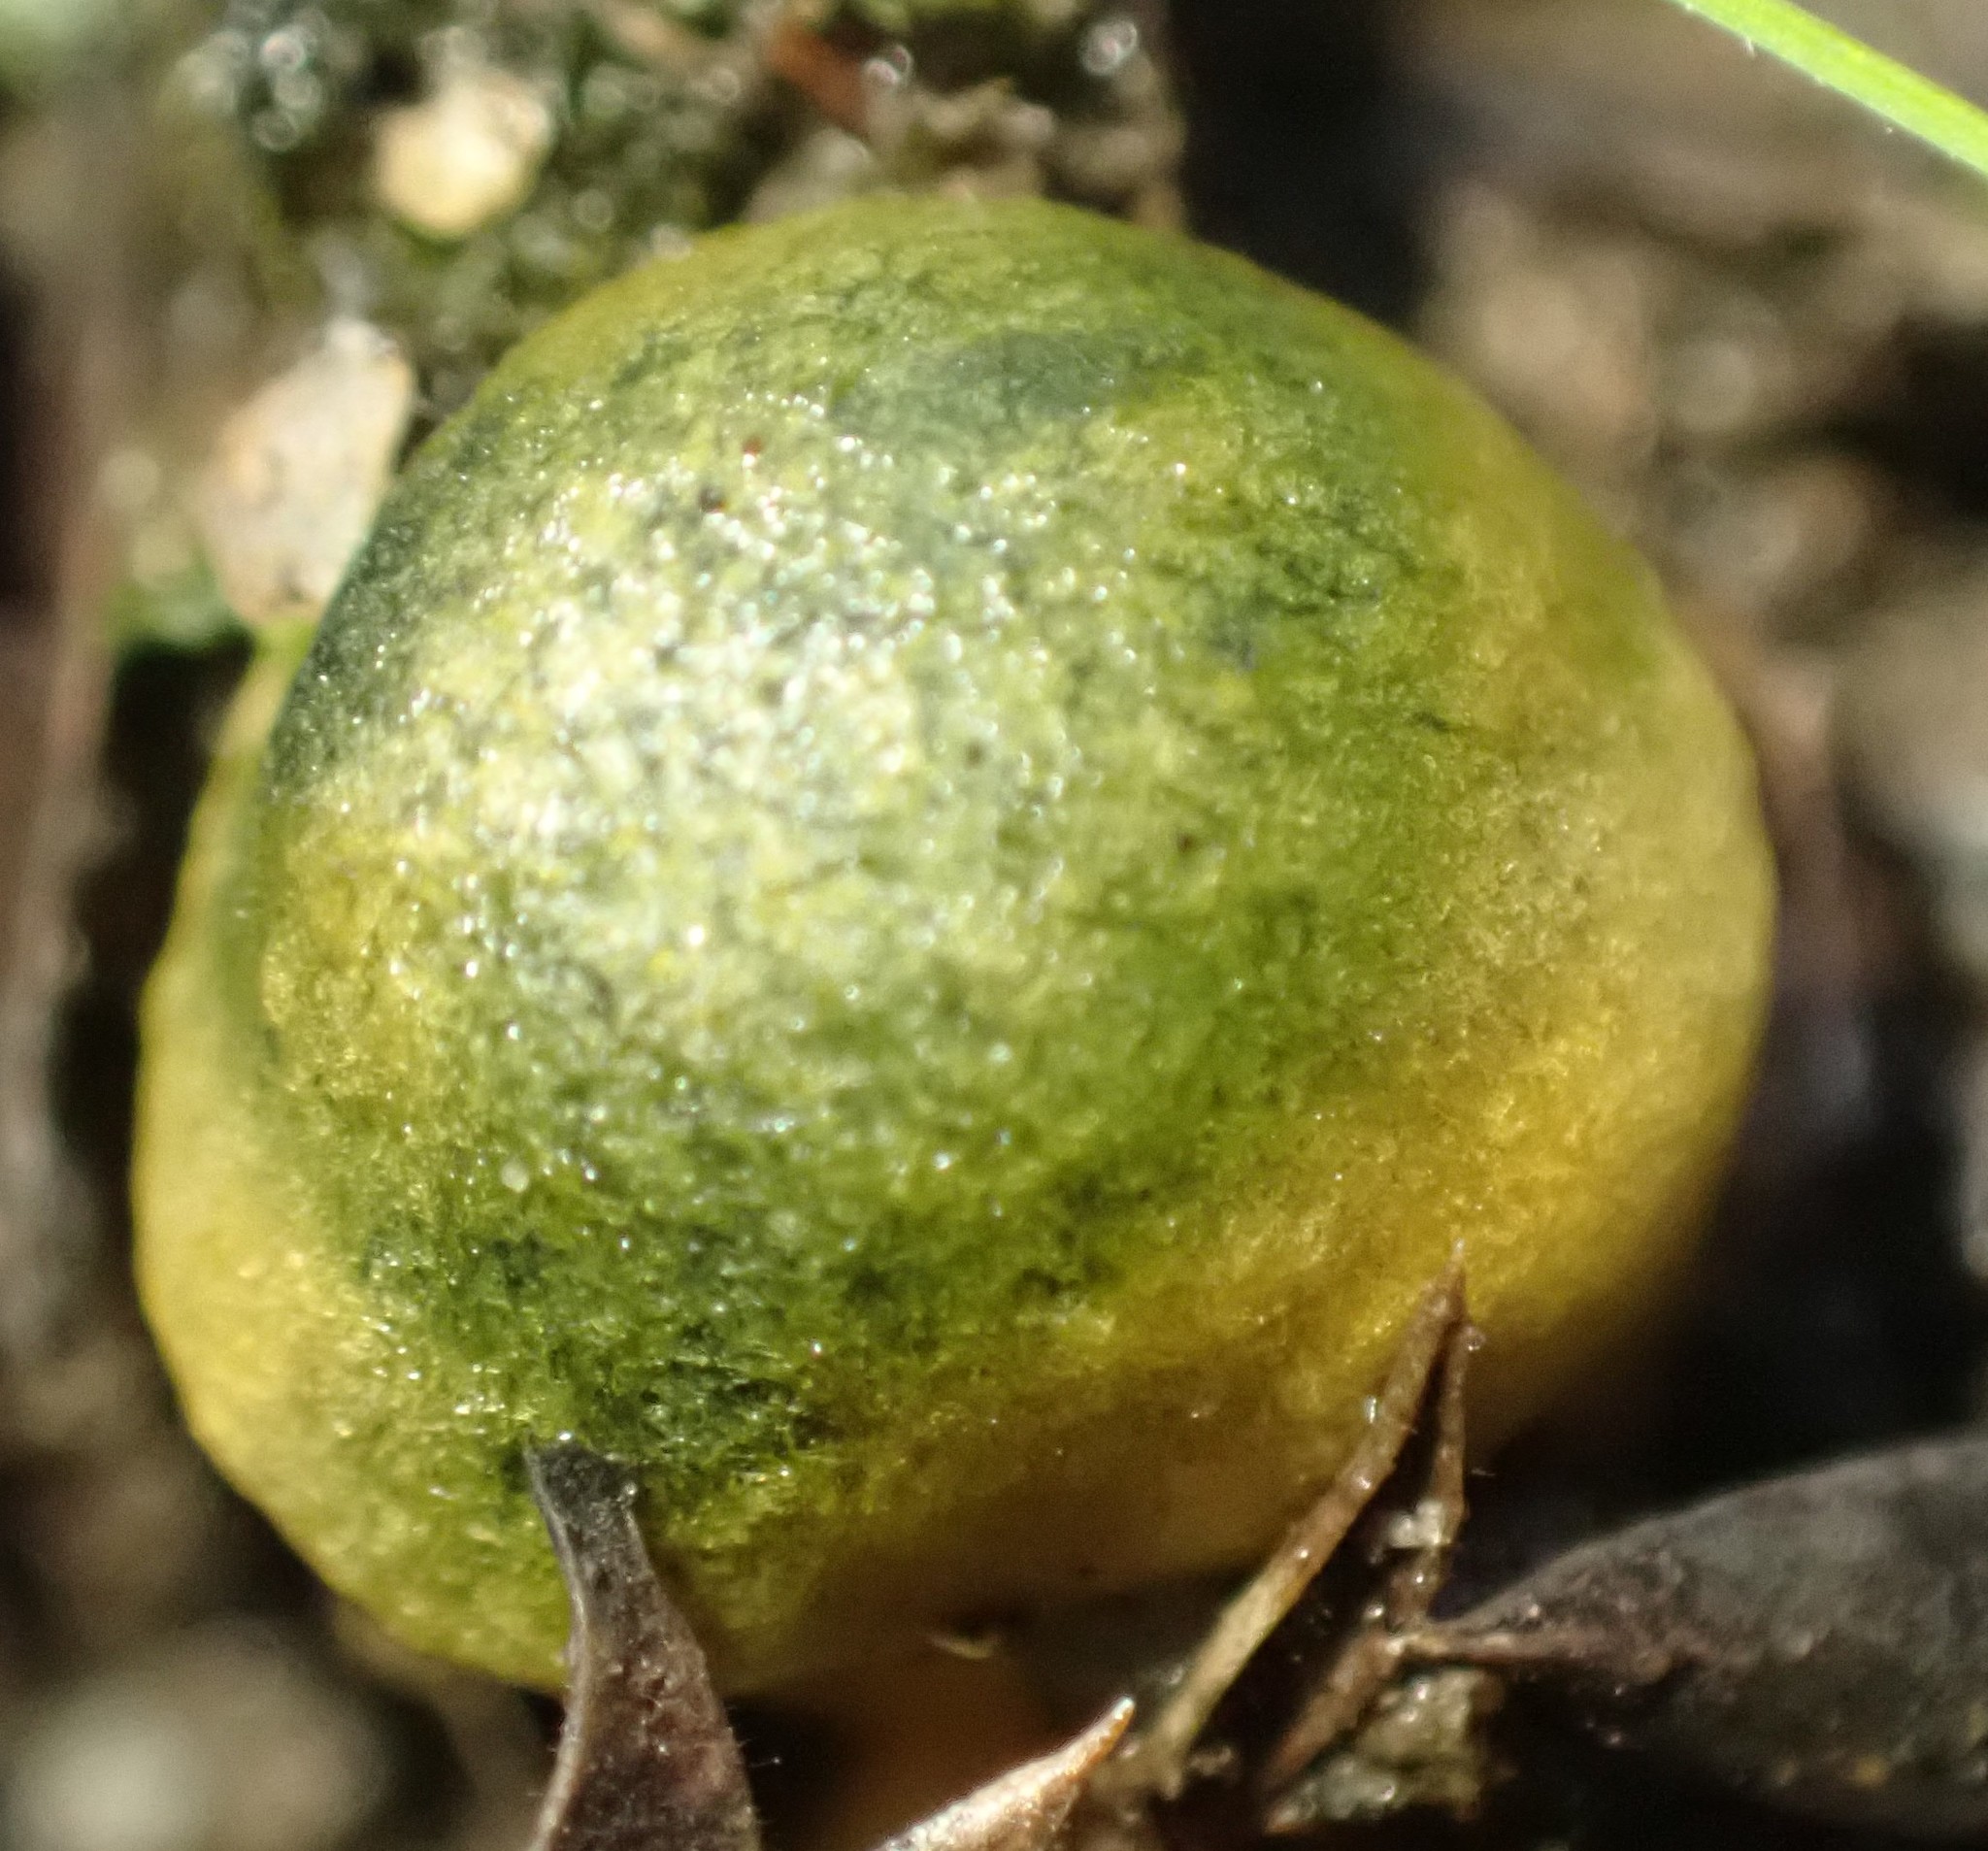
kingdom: Fungi
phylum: Basidiomycota
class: Agaricomycetes
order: Agaricales
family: Cortinariaceae
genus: Cortinarius
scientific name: Cortinarius austrovenetus
